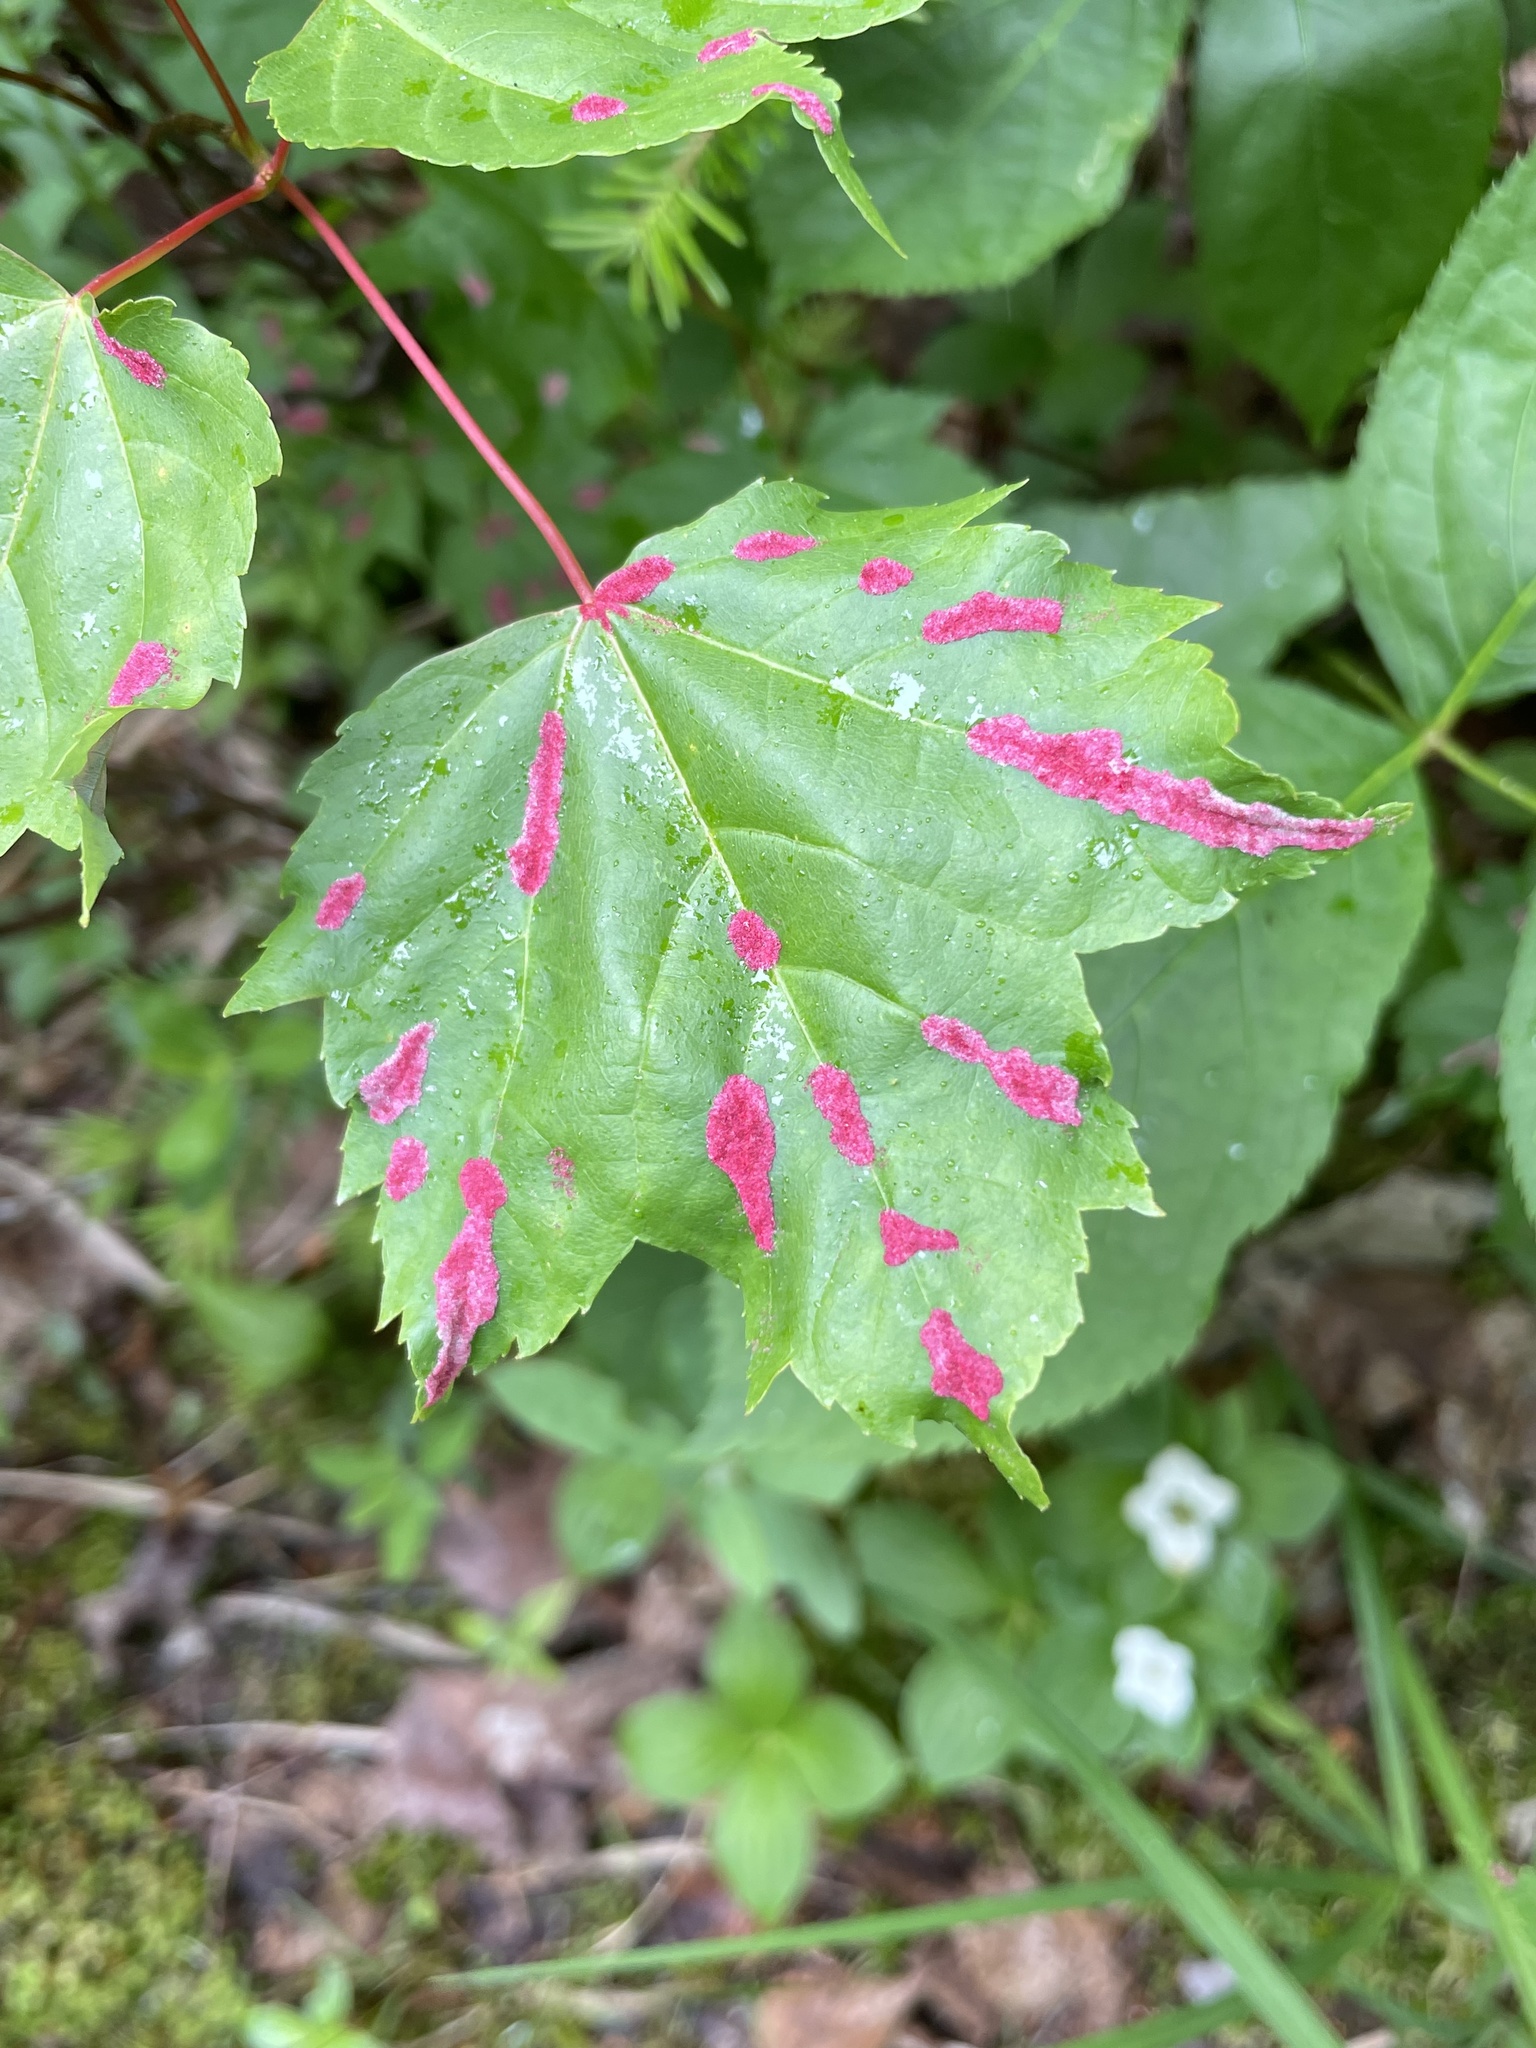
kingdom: Animalia
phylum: Arthropoda
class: Arachnida
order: Trombidiformes
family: Eriophyidae
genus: Aceria
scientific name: Aceria
